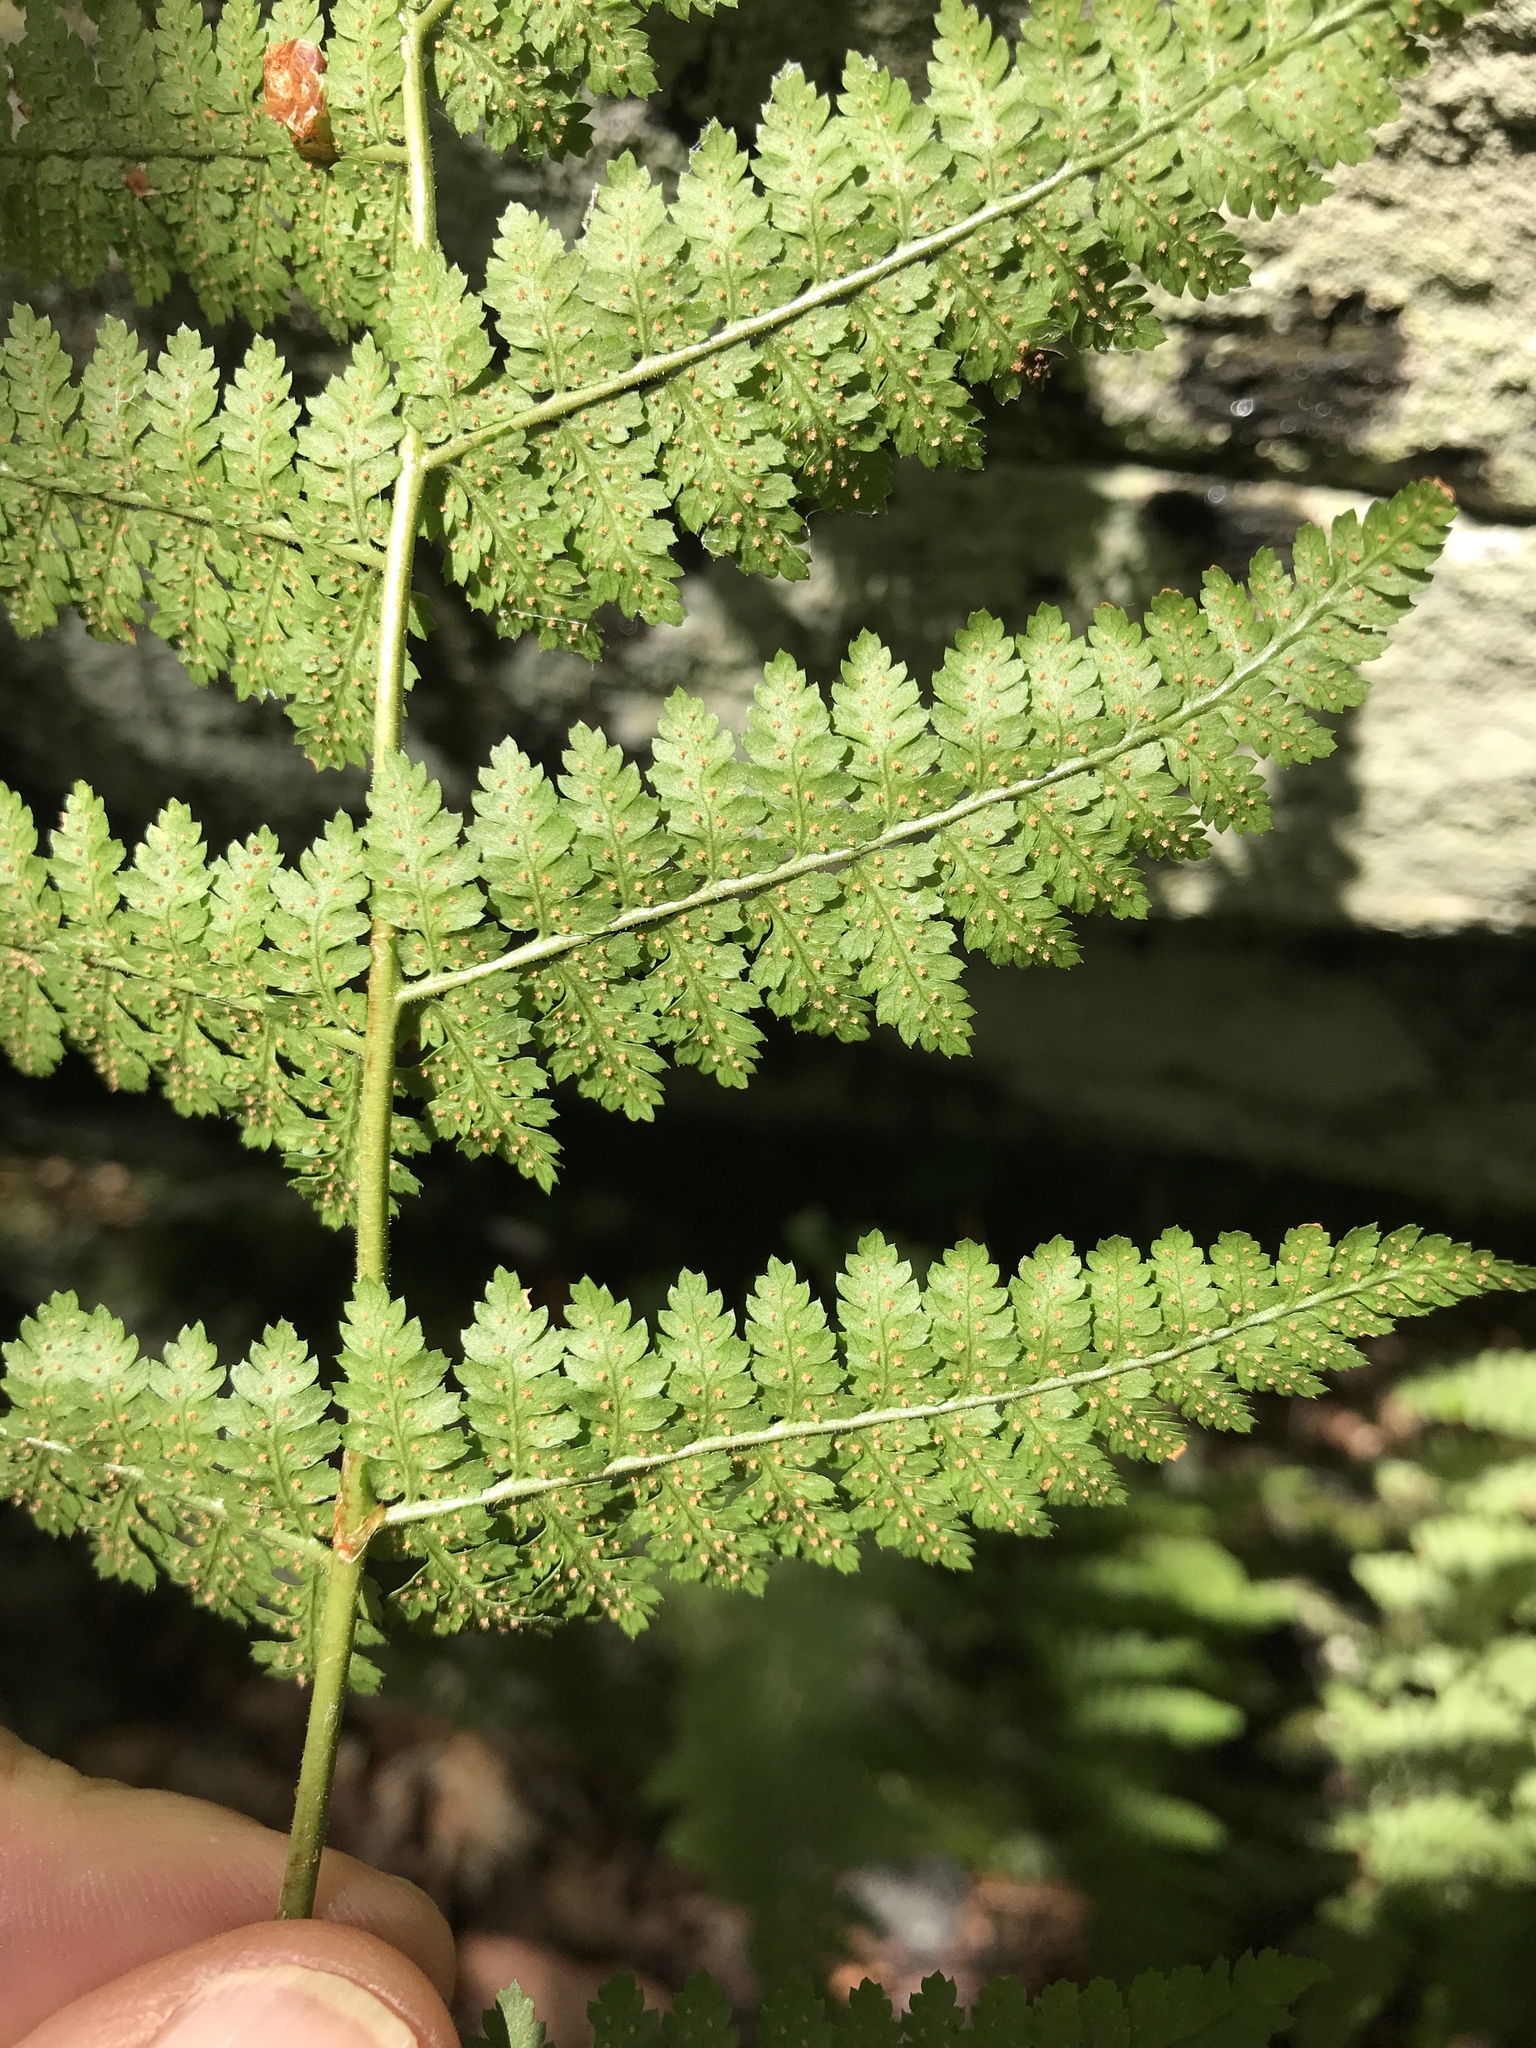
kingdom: Plantae
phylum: Tracheophyta
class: Polypodiopsida
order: Polypodiales
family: Dryopteridaceae
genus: Dryopteris
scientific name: Dryopteris intermedia
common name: Evergreen wood fern
